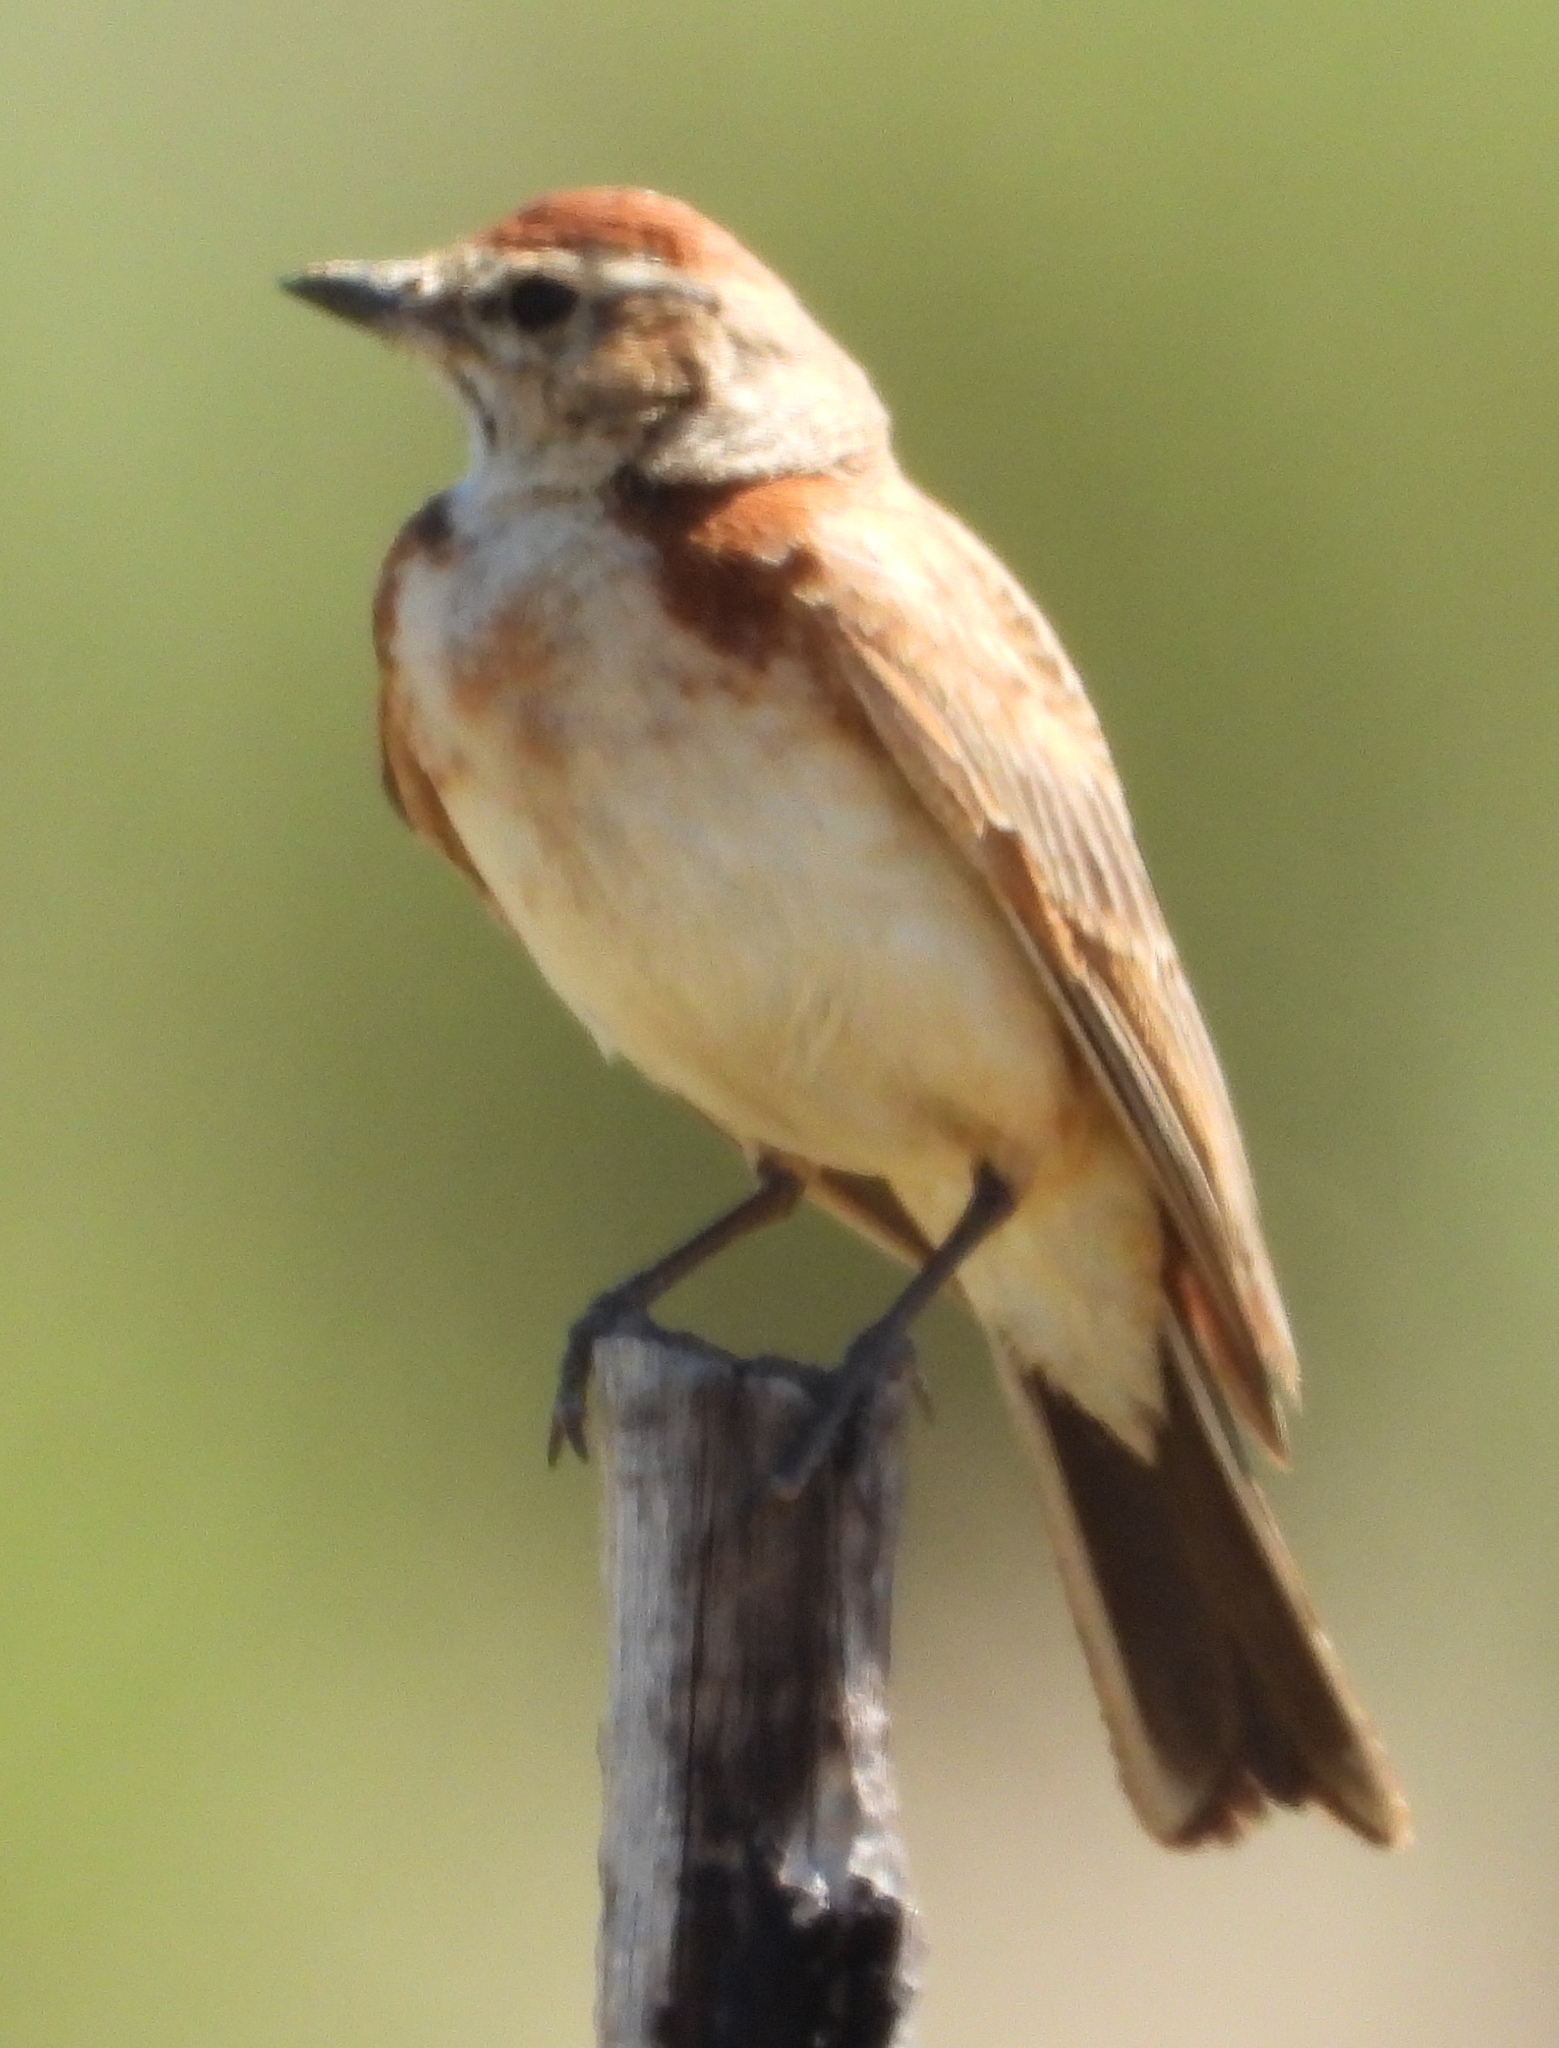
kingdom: Animalia
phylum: Chordata
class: Aves
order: Passeriformes
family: Alaudidae
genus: Calandrella
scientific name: Calandrella cinerea
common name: Red-capped lark
